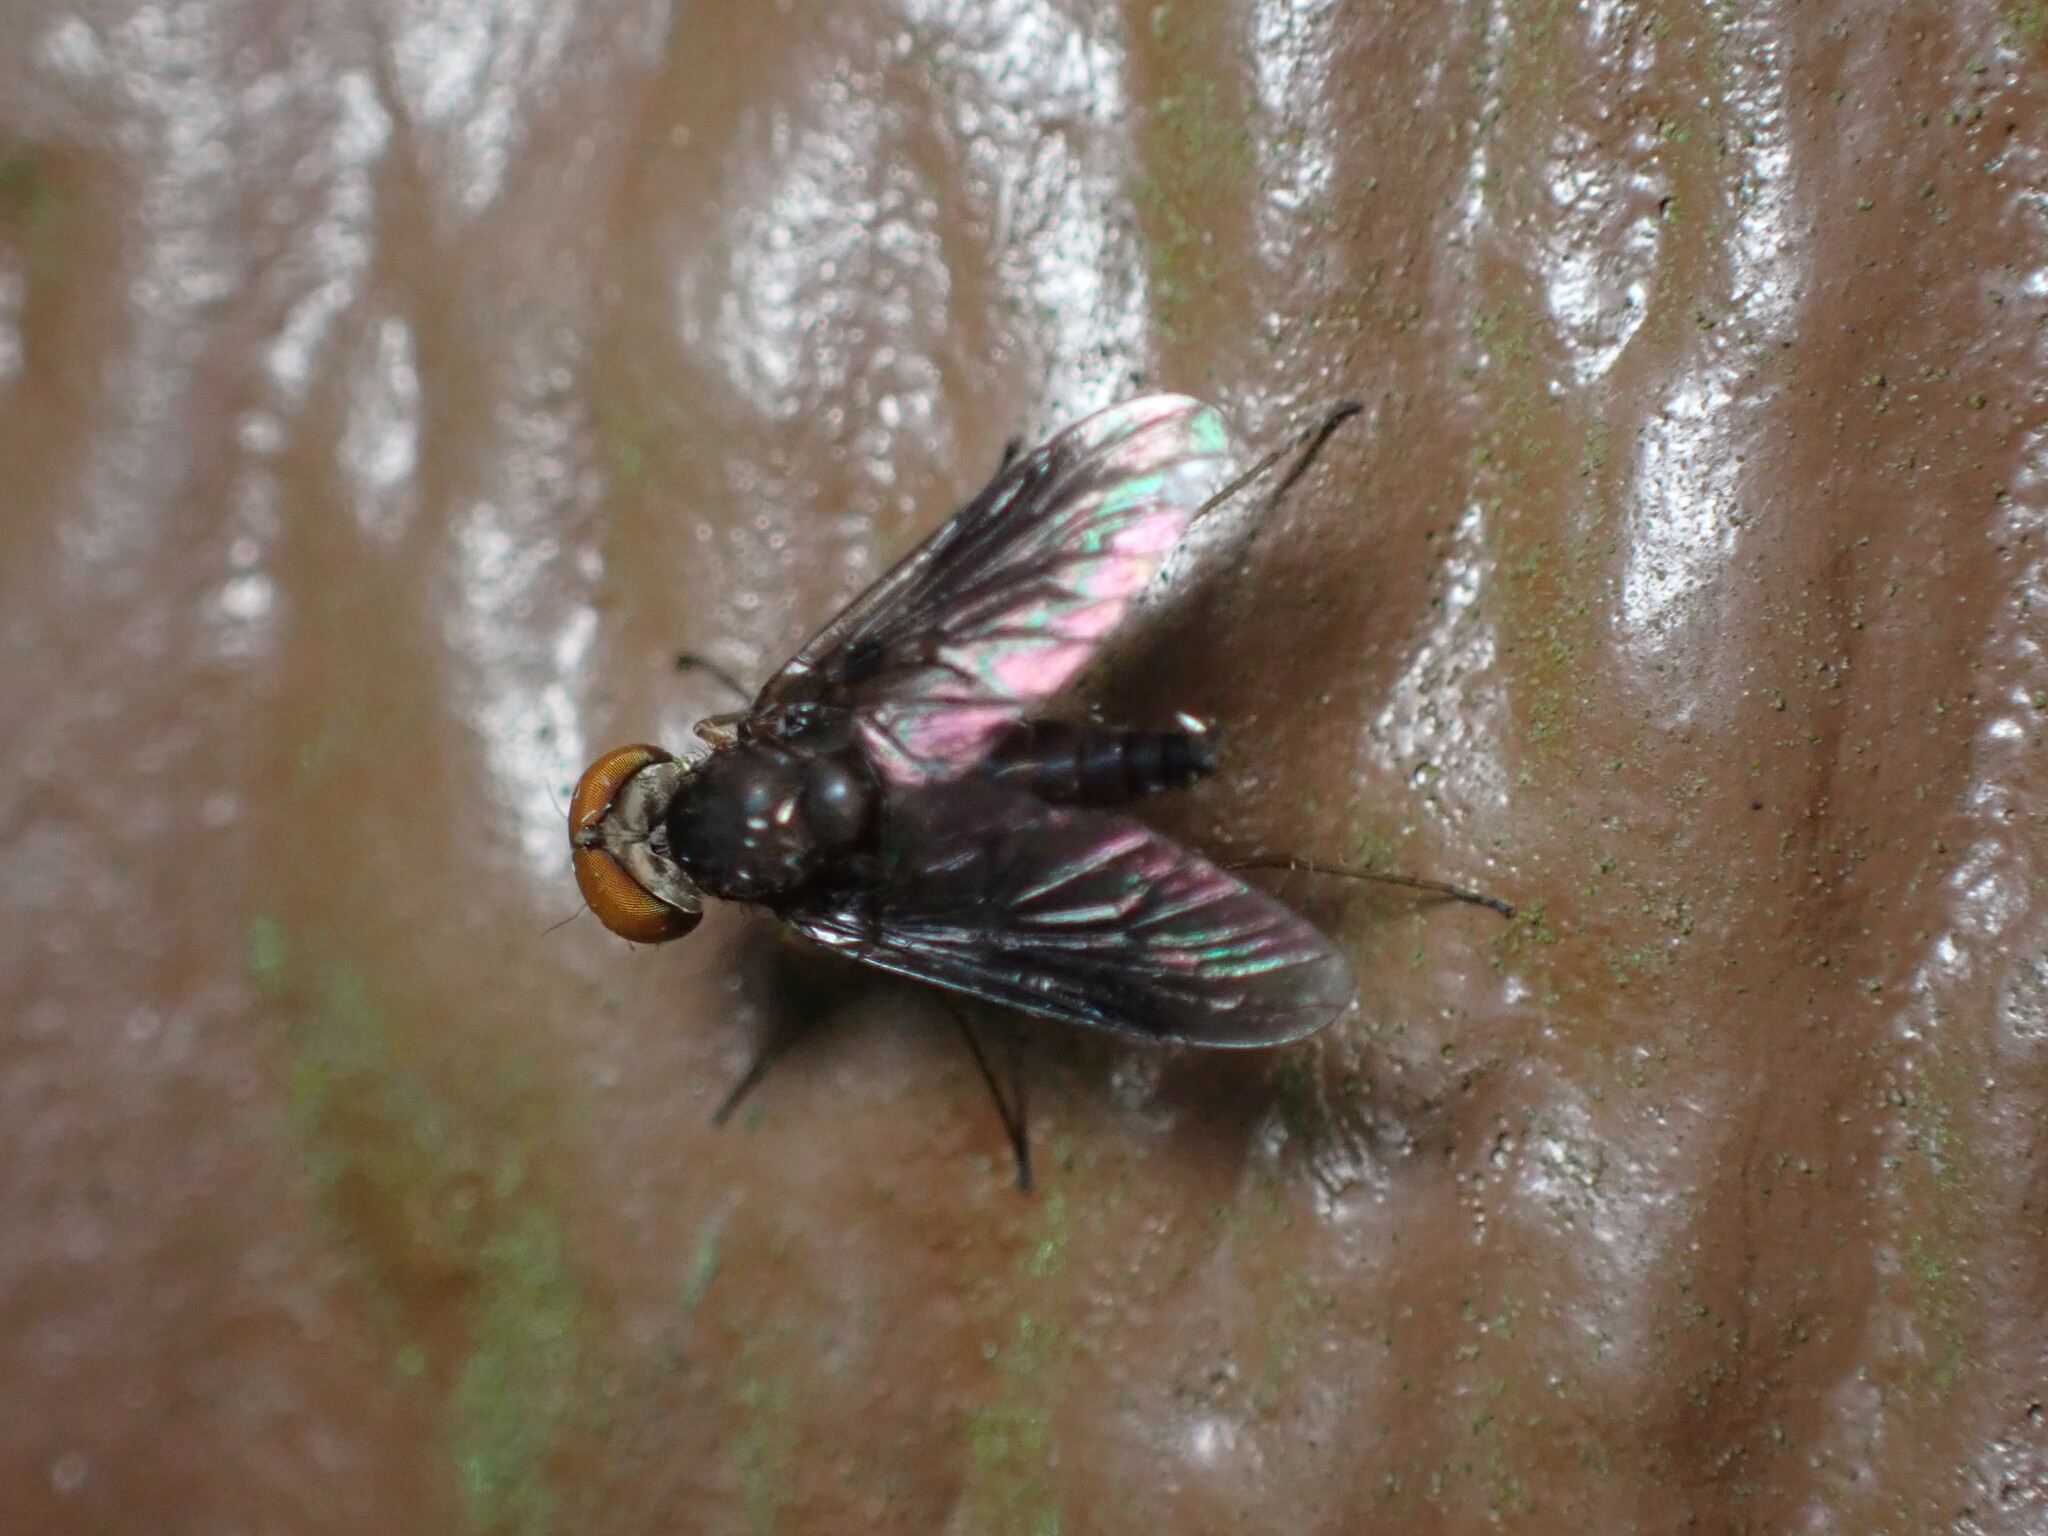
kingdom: Animalia
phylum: Arthropoda
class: Insecta
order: Diptera
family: Rhagionidae
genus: Chrysopilus
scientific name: Chrysopilus quadratus
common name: Quadrate snipe fly
